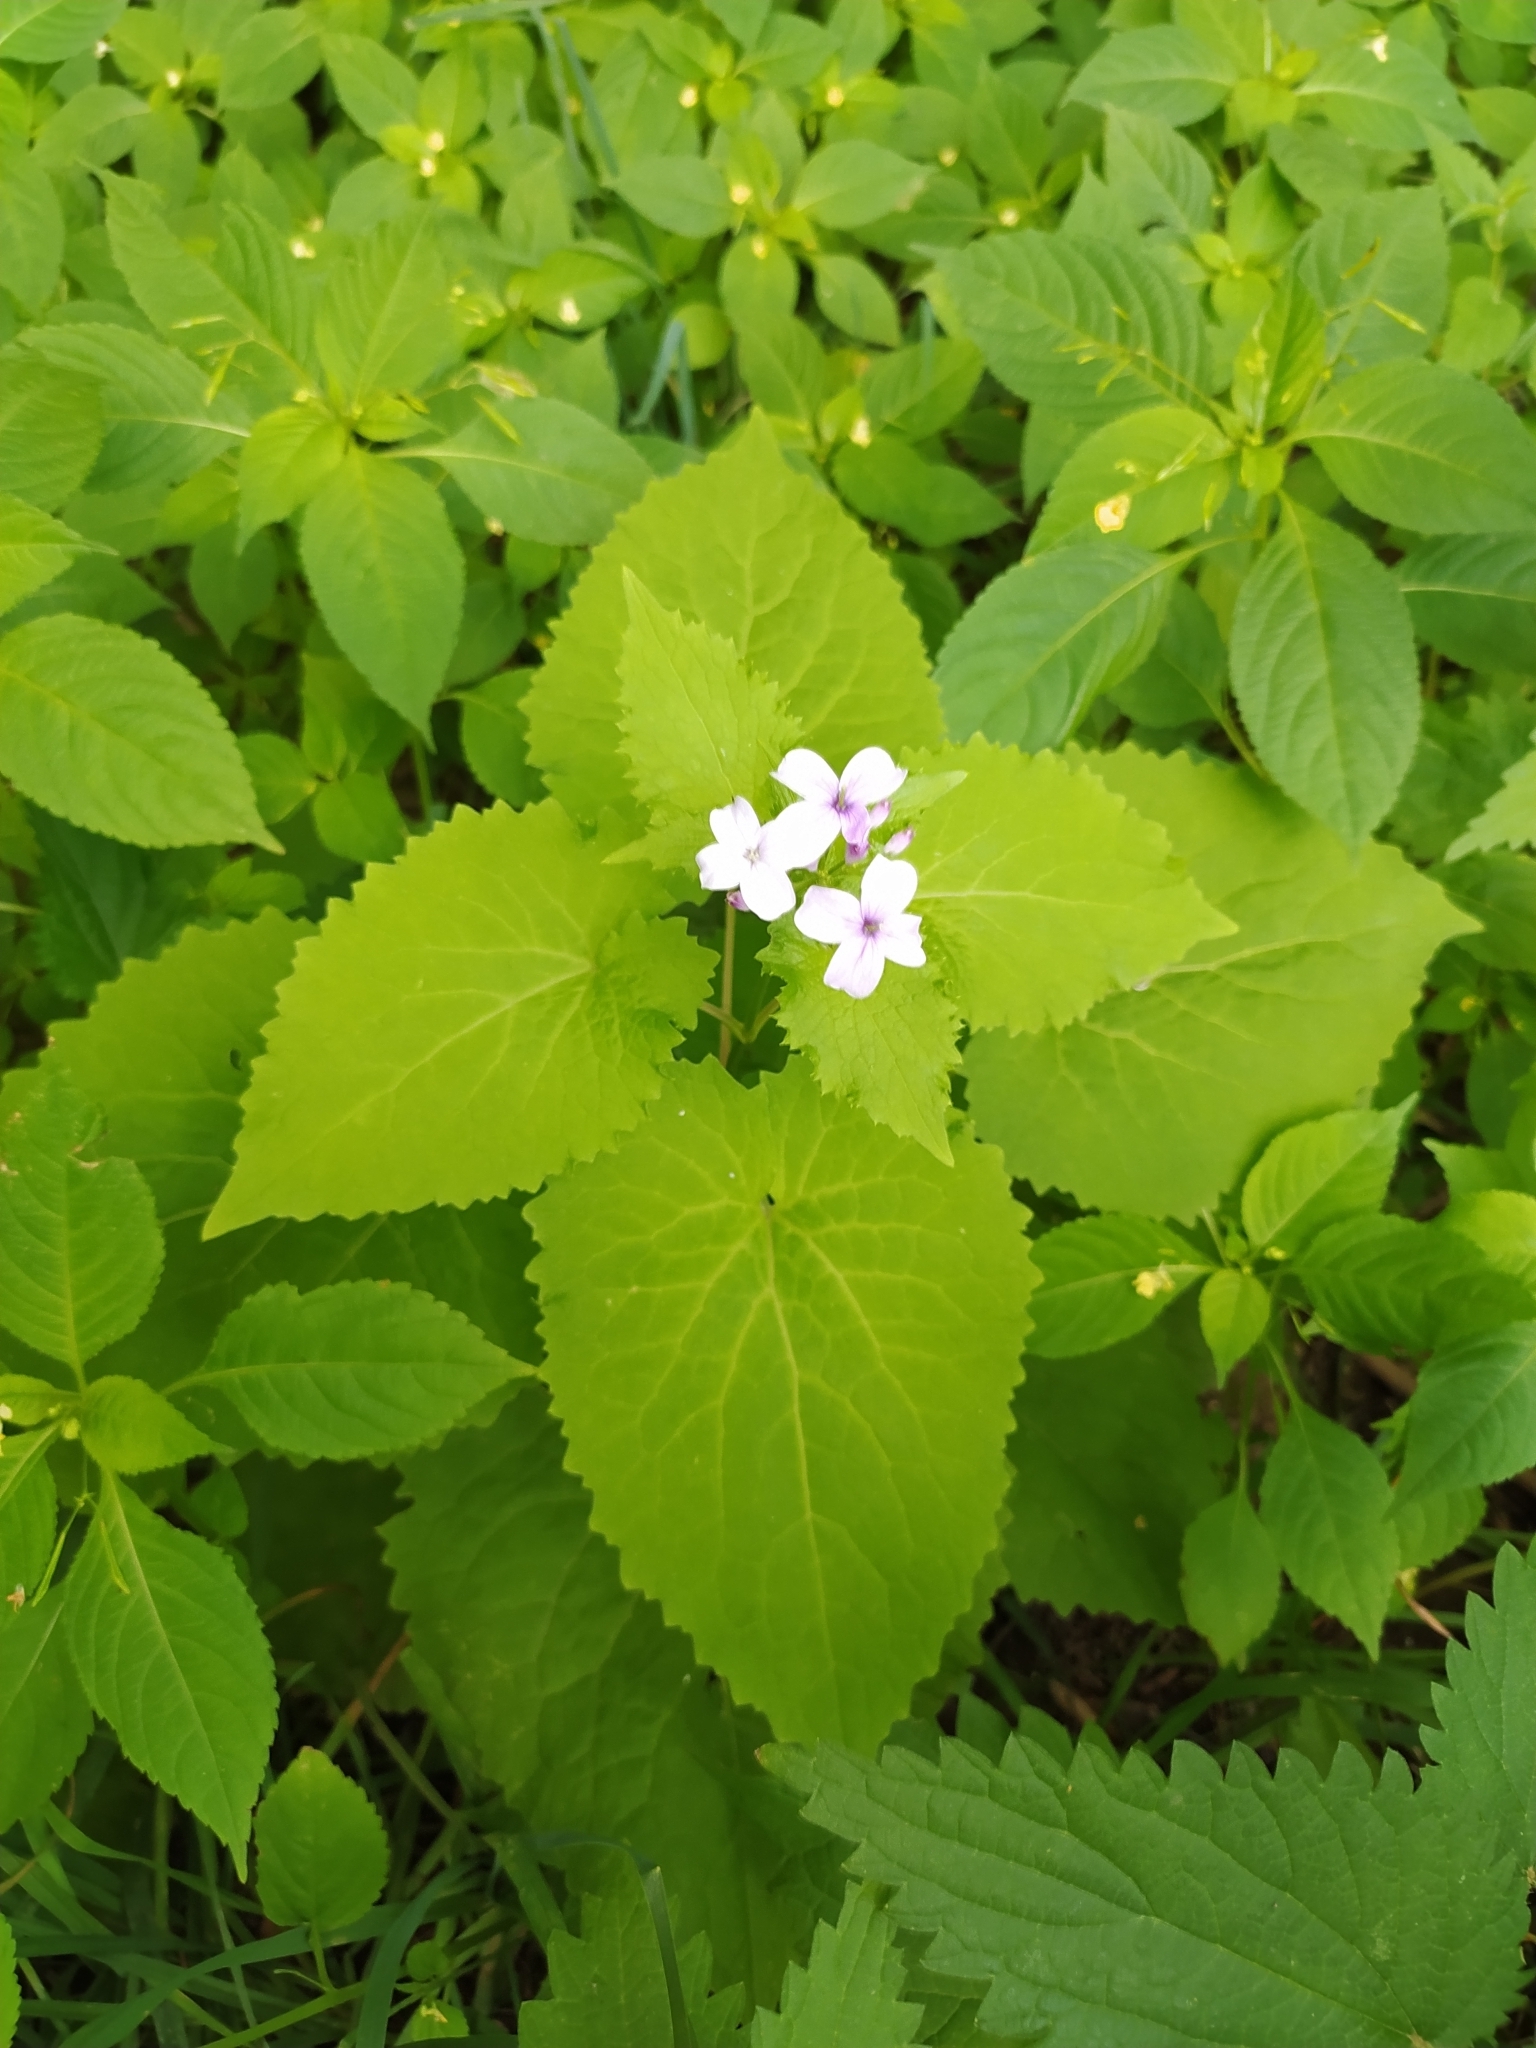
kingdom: Plantae
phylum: Tracheophyta
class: Magnoliopsida
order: Brassicales
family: Brassicaceae
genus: Lunaria
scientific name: Lunaria rediviva
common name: Perennial honesty
